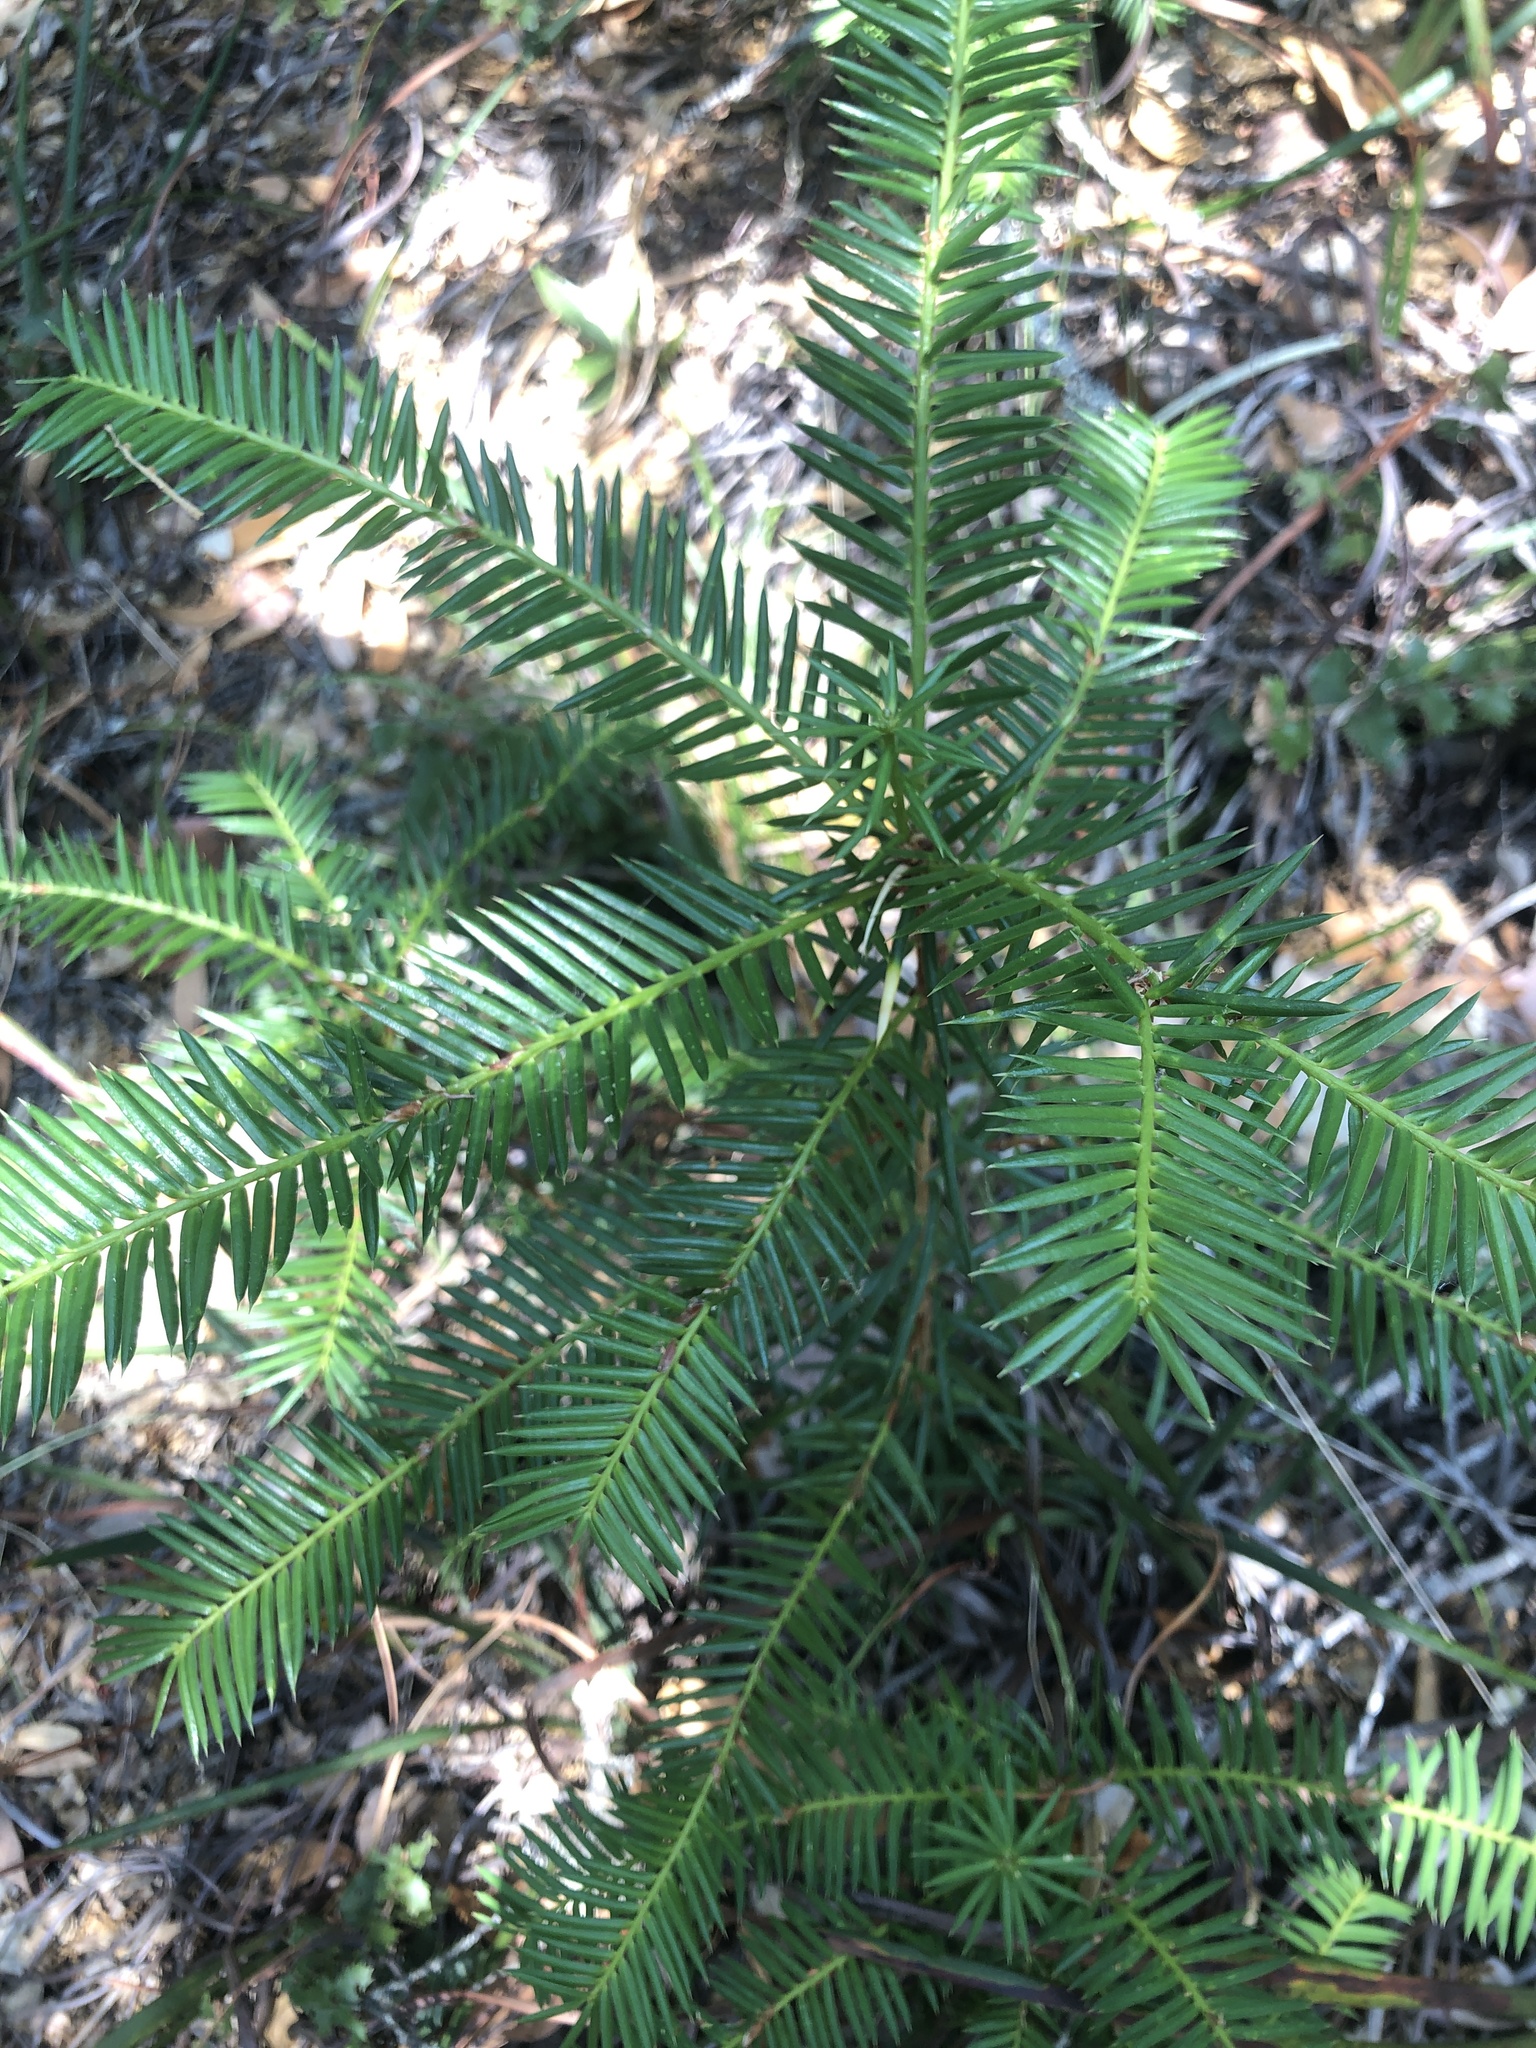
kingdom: Plantae
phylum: Tracheophyta
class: Pinopsida
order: Pinales
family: Taxaceae
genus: Torreya
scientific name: Torreya californica
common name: California torreya
